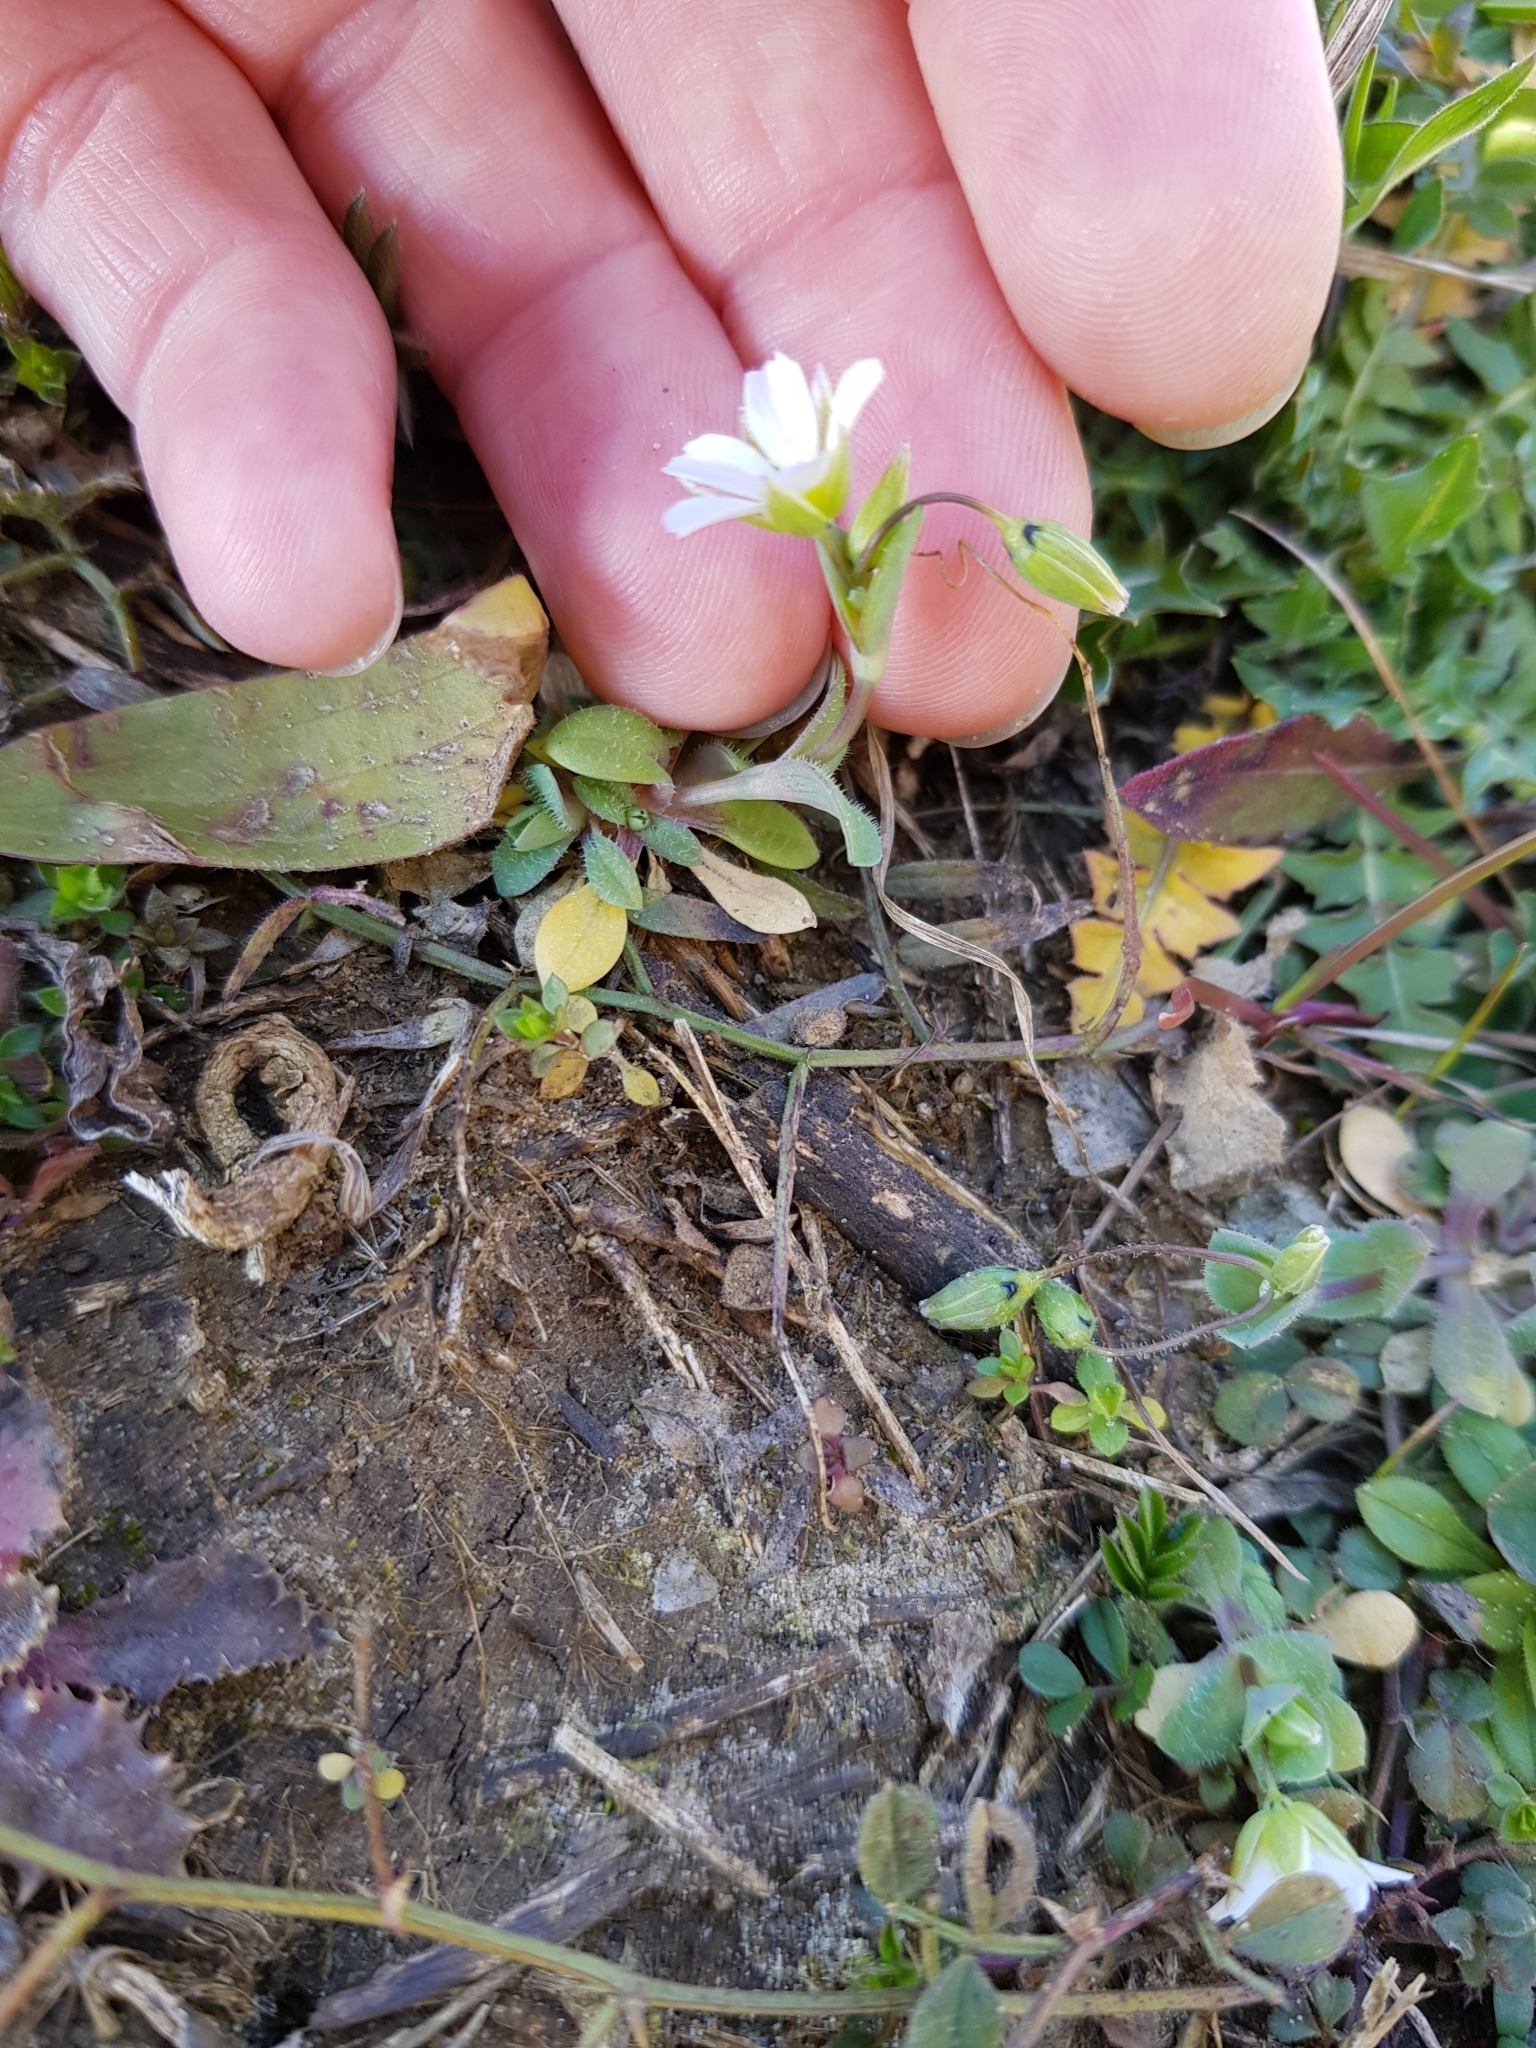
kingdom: Plantae
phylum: Tracheophyta
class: Magnoliopsida
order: Caryophyllales
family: Caryophyllaceae
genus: Holosteum
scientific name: Holosteum umbellatum
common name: Jagged chickweed
